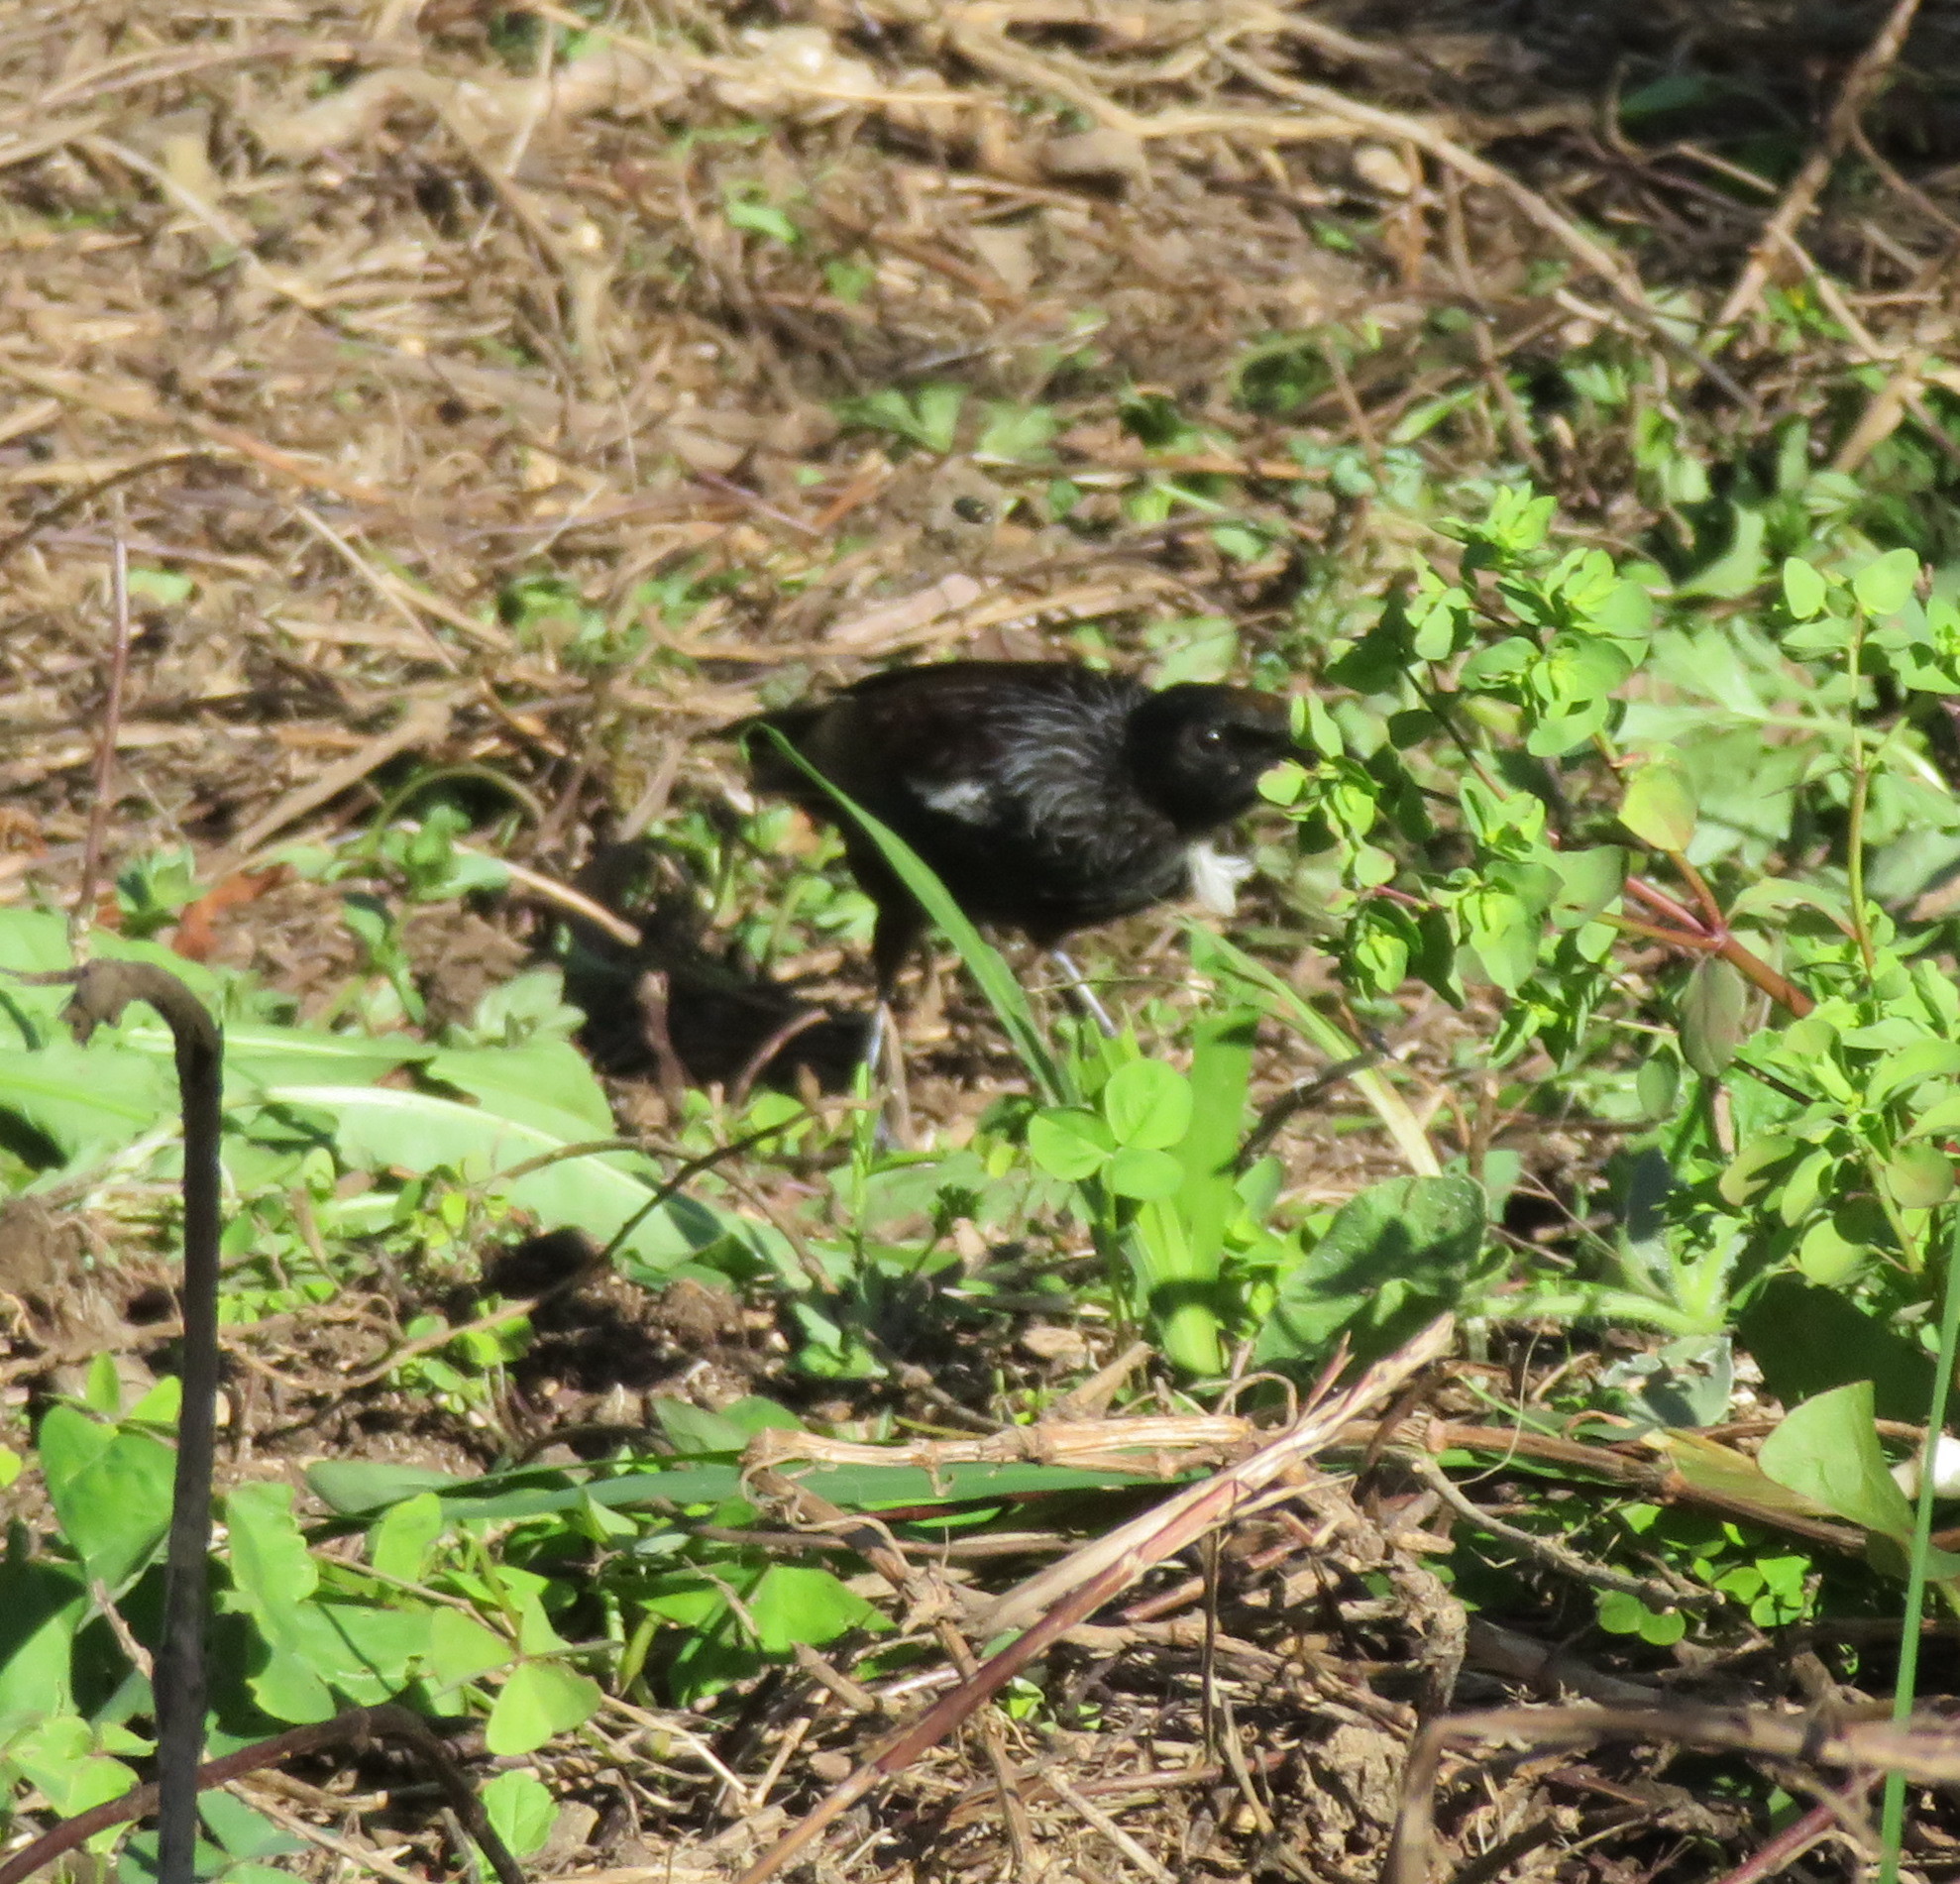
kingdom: Plantae
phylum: Tracheophyta
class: Magnoliopsida
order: Malpighiales
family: Euphorbiaceae
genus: Euphorbia
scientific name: Euphorbia peplus
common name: Petty spurge
